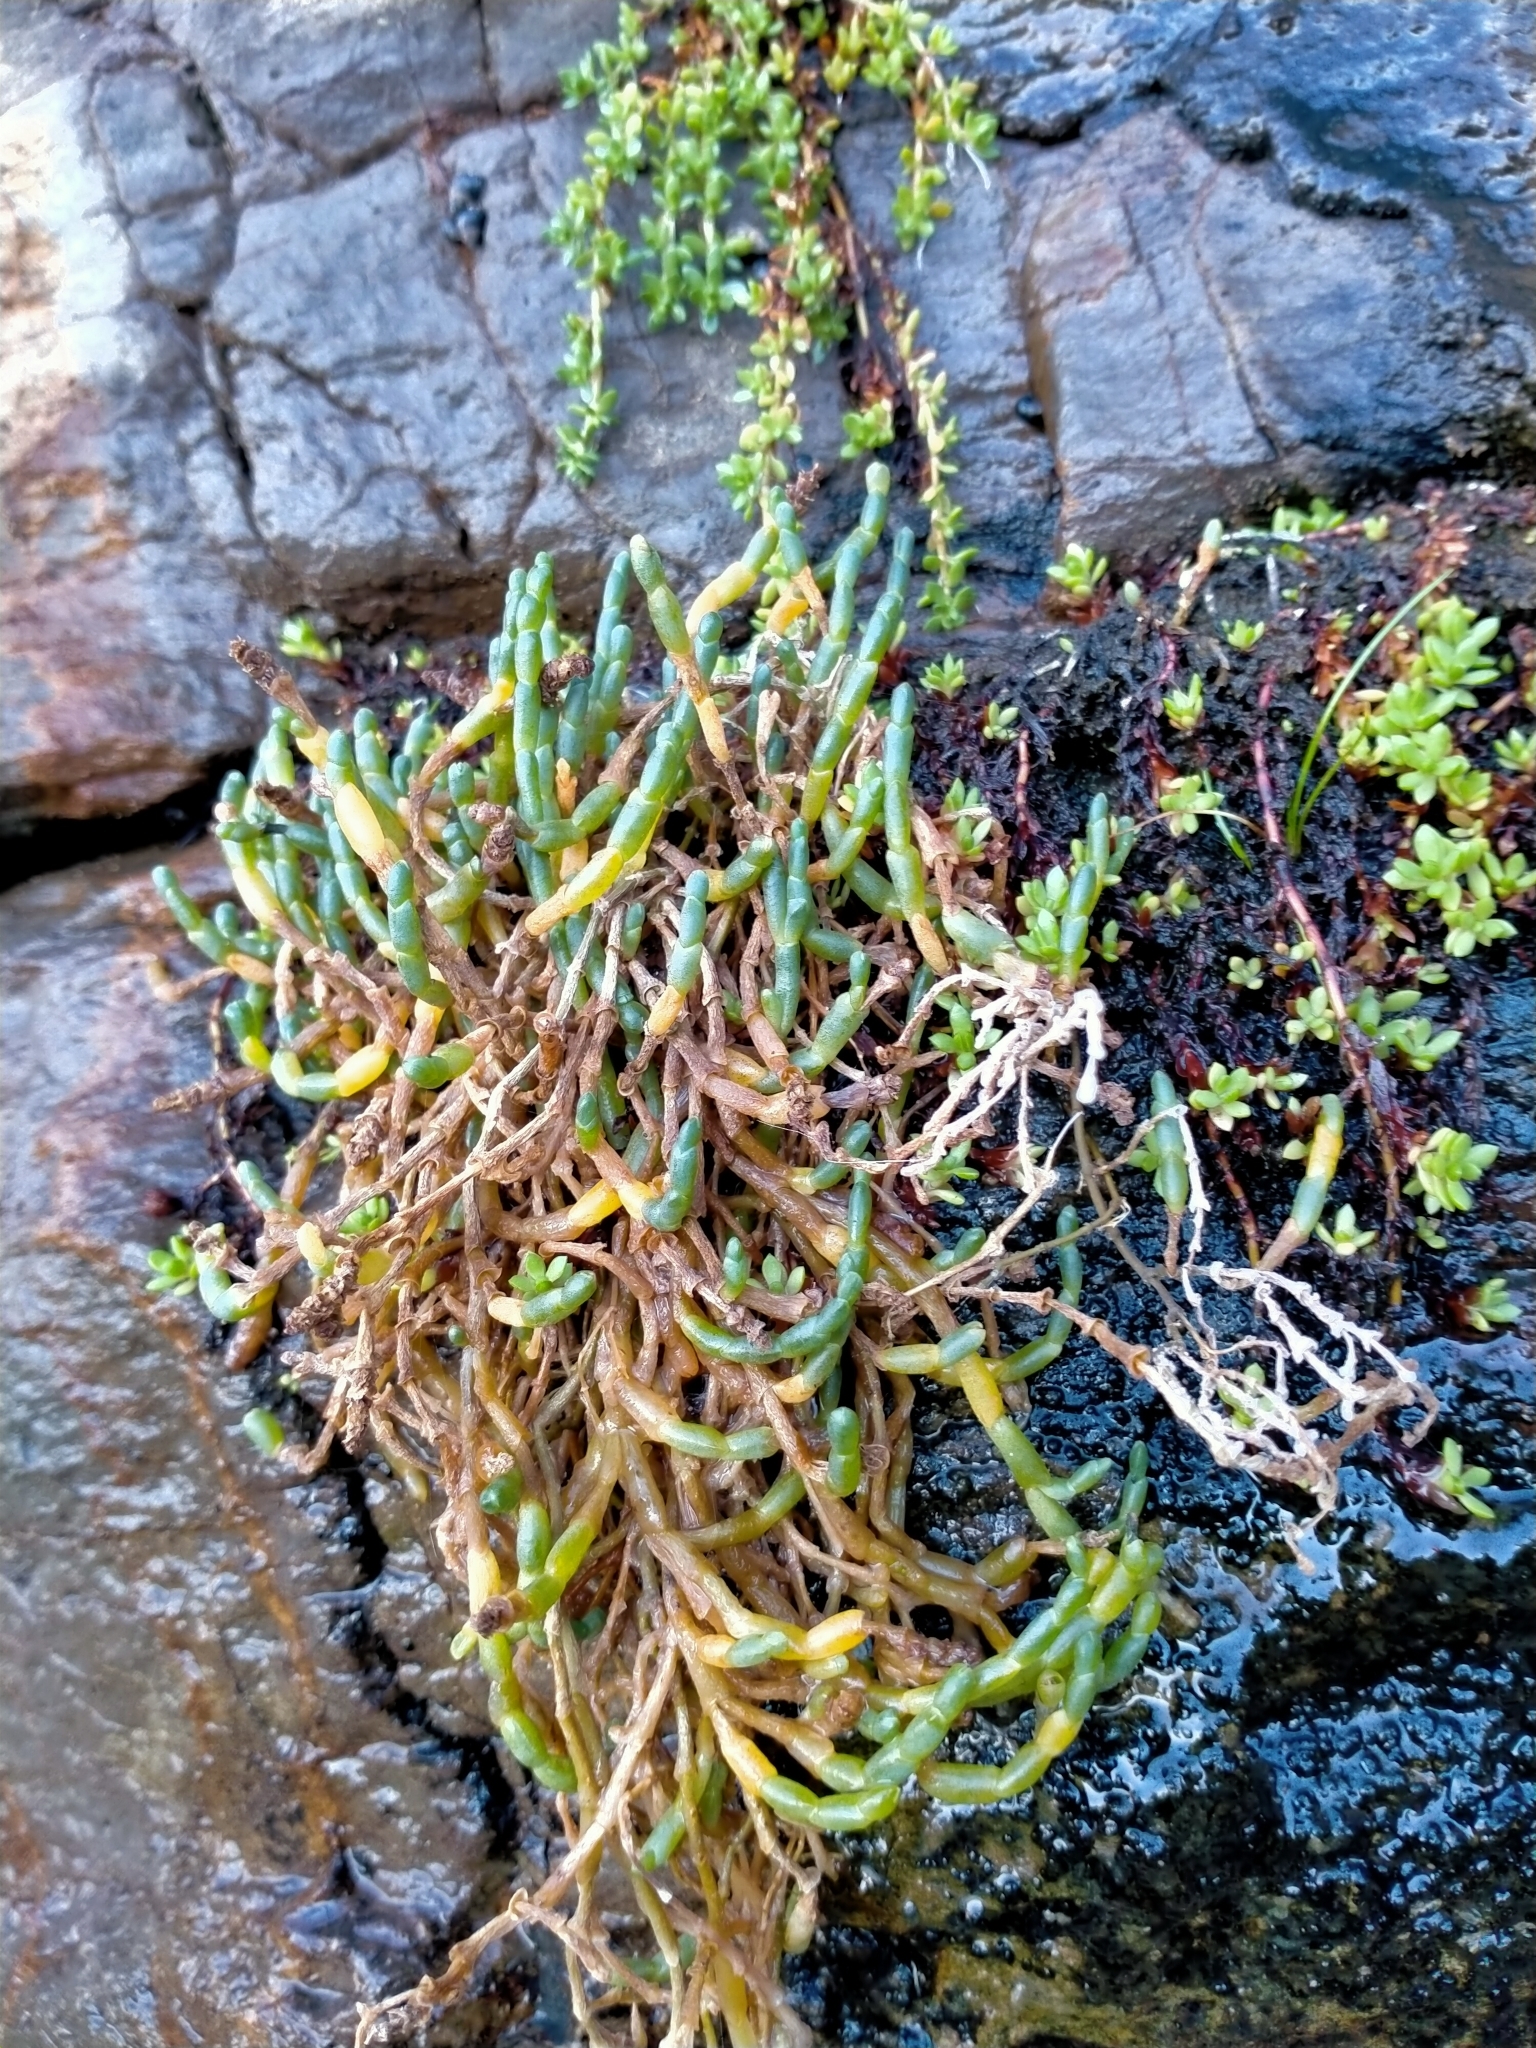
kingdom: Plantae
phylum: Tracheophyta
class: Magnoliopsida
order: Caryophyllales
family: Amaranthaceae
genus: Salicornia
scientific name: Salicornia quinqueflora
